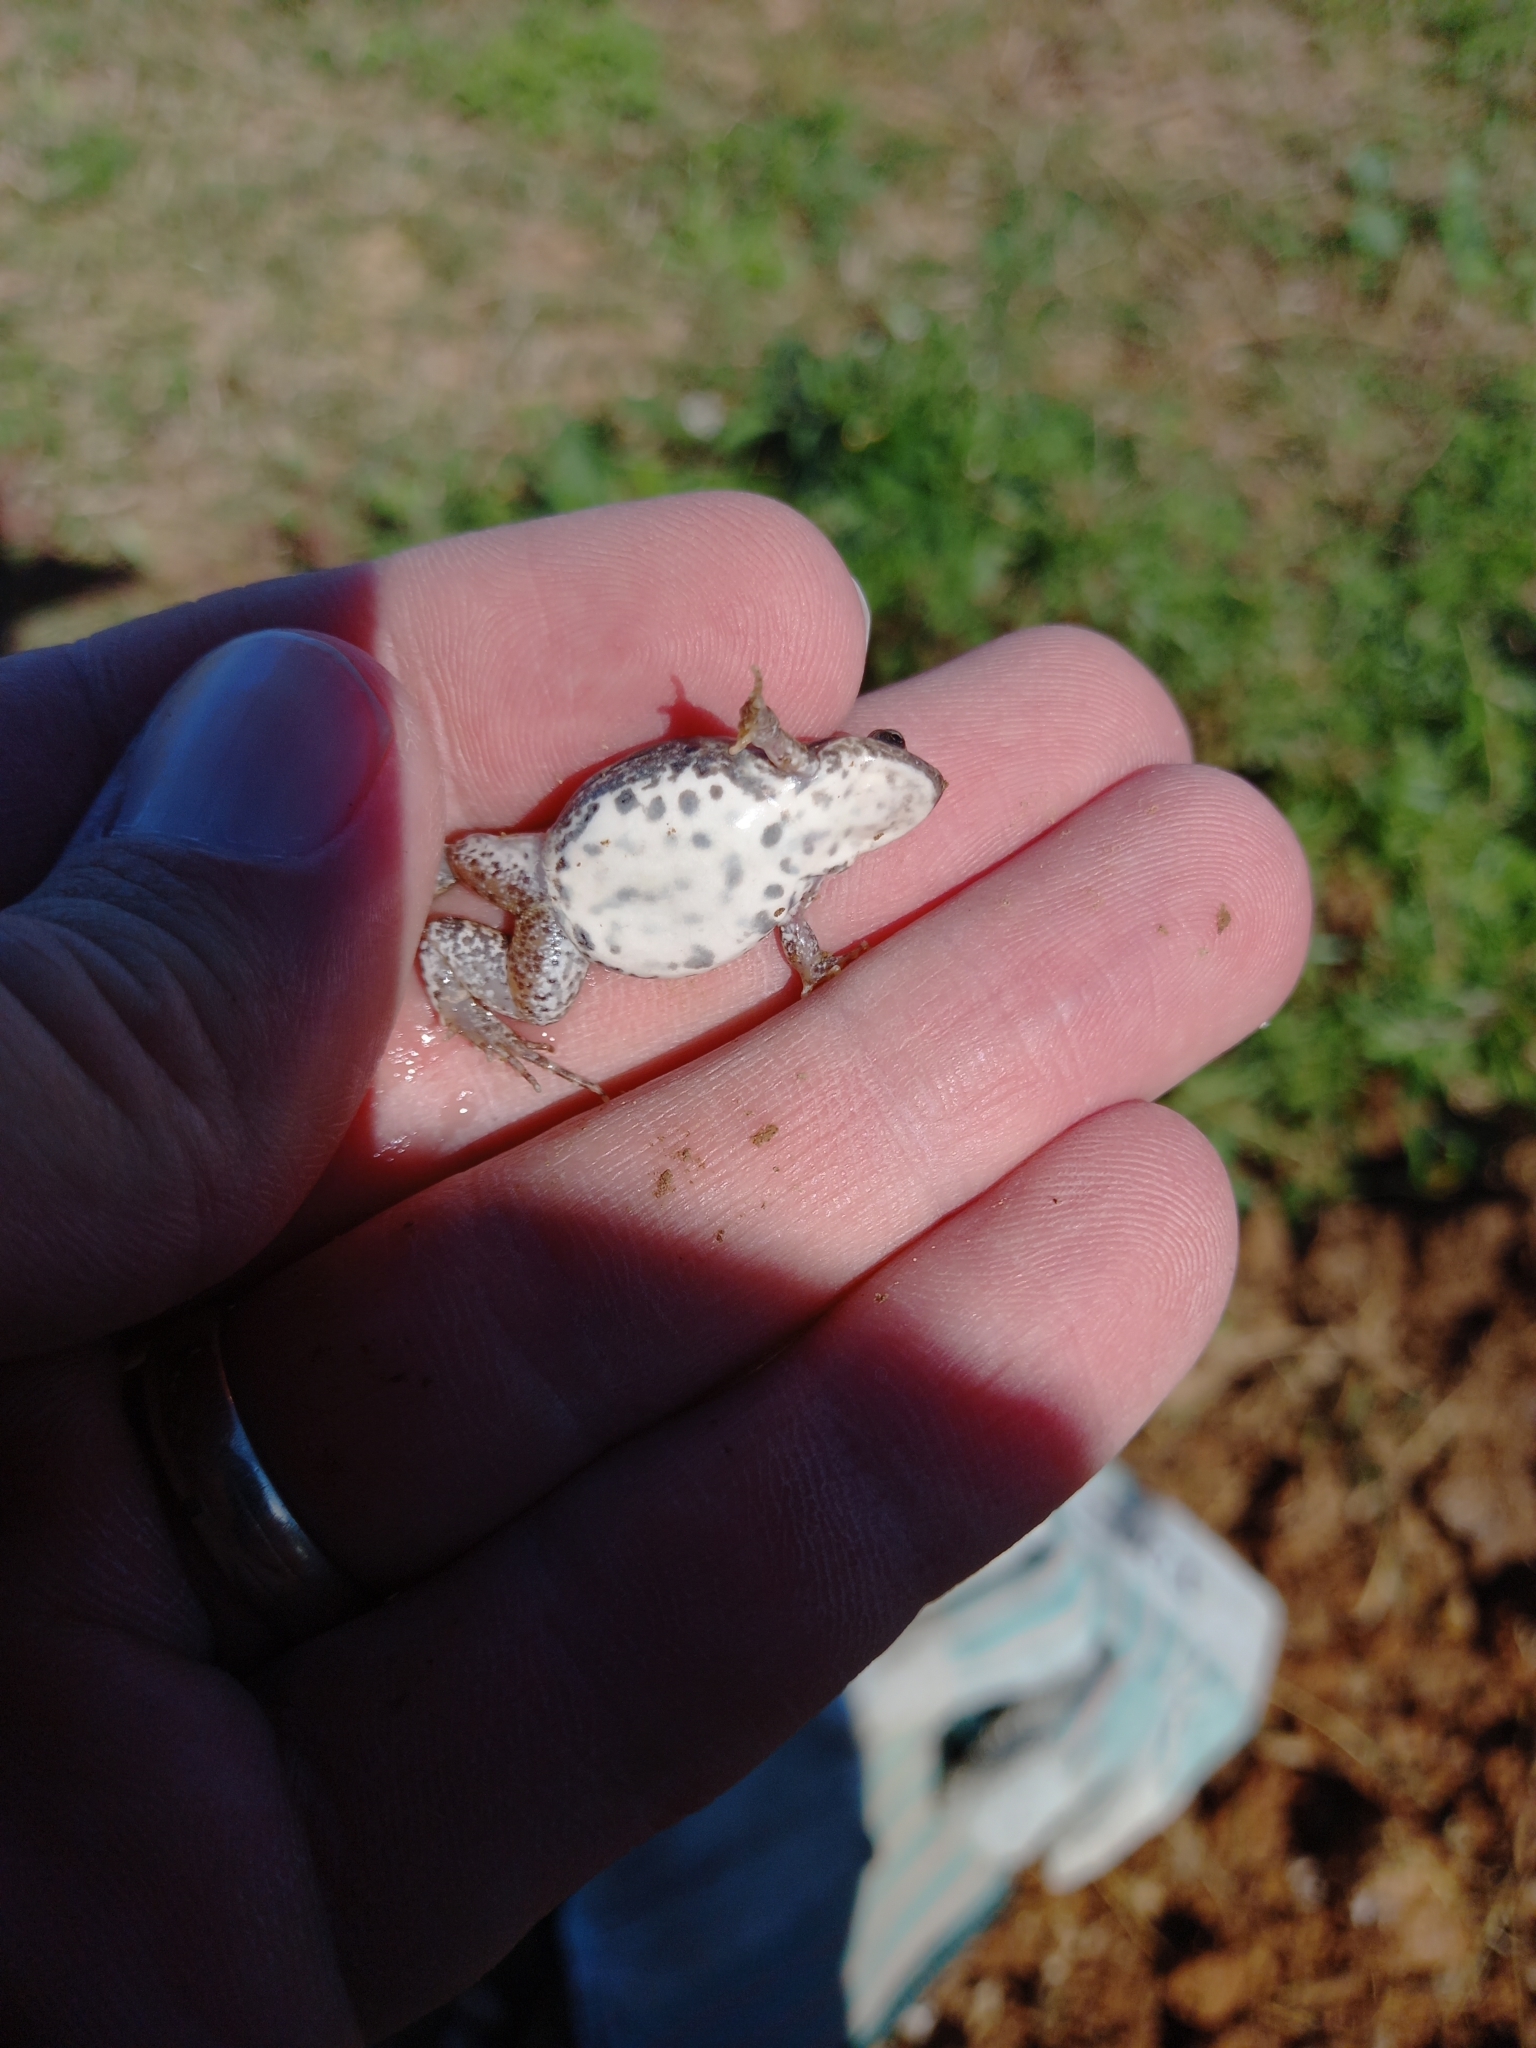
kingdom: Animalia
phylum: Chordata
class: Amphibia
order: Anura
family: Pyxicephalidae
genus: Cacosternum
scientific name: Cacosternum boettgeri
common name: Boettger's frog
